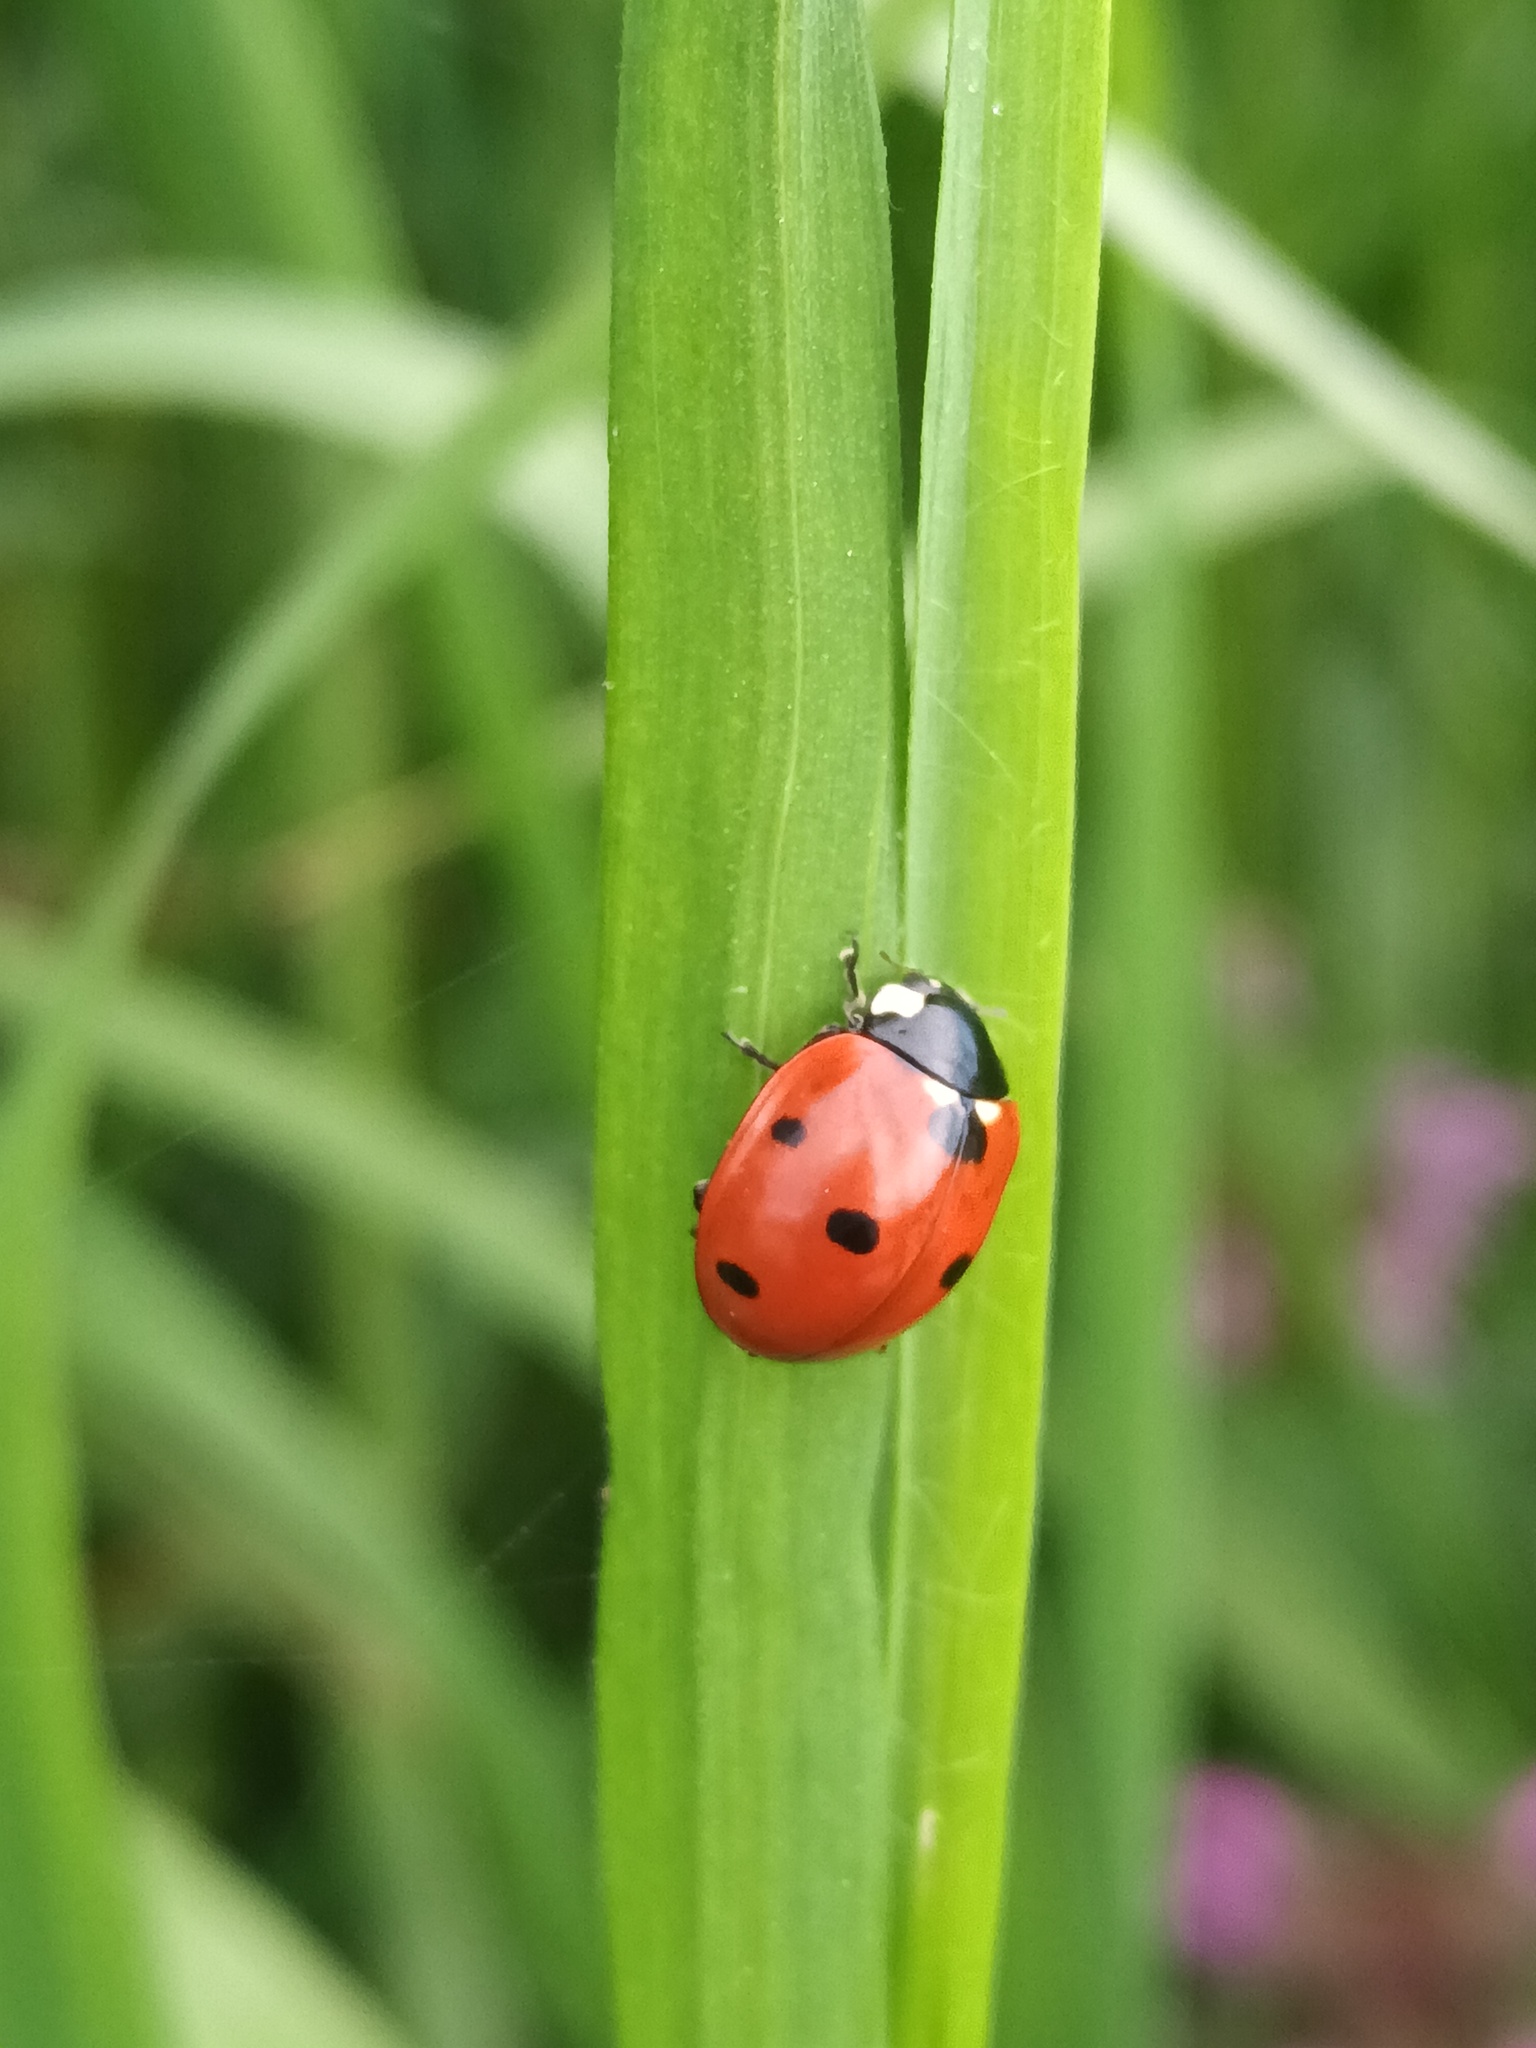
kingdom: Animalia
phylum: Arthropoda
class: Insecta
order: Coleoptera
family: Coccinellidae
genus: Coccinella
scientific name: Coccinella septempunctata
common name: Sevenspotted lady beetle
